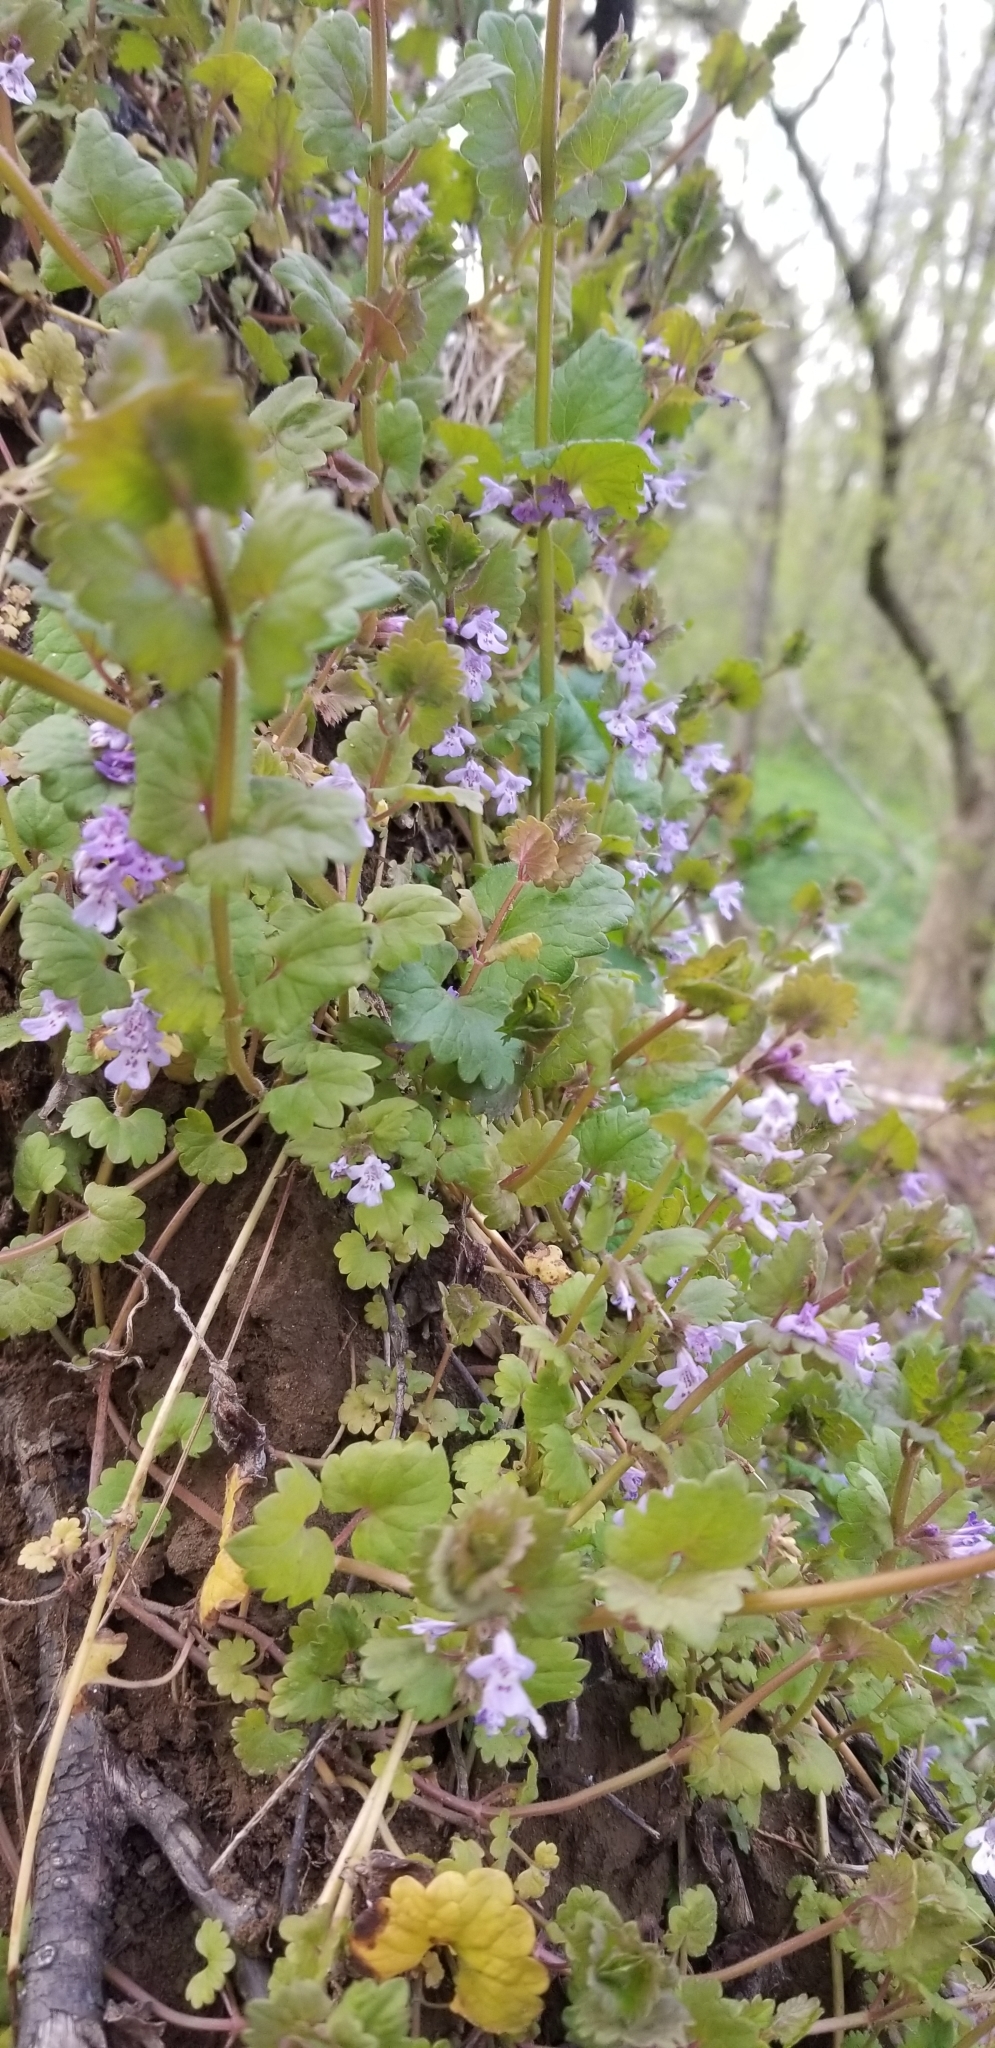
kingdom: Plantae
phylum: Tracheophyta
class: Magnoliopsida
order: Lamiales
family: Lamiaceae
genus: Glechoma
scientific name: Glechoma hederacea
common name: Ground ivy
